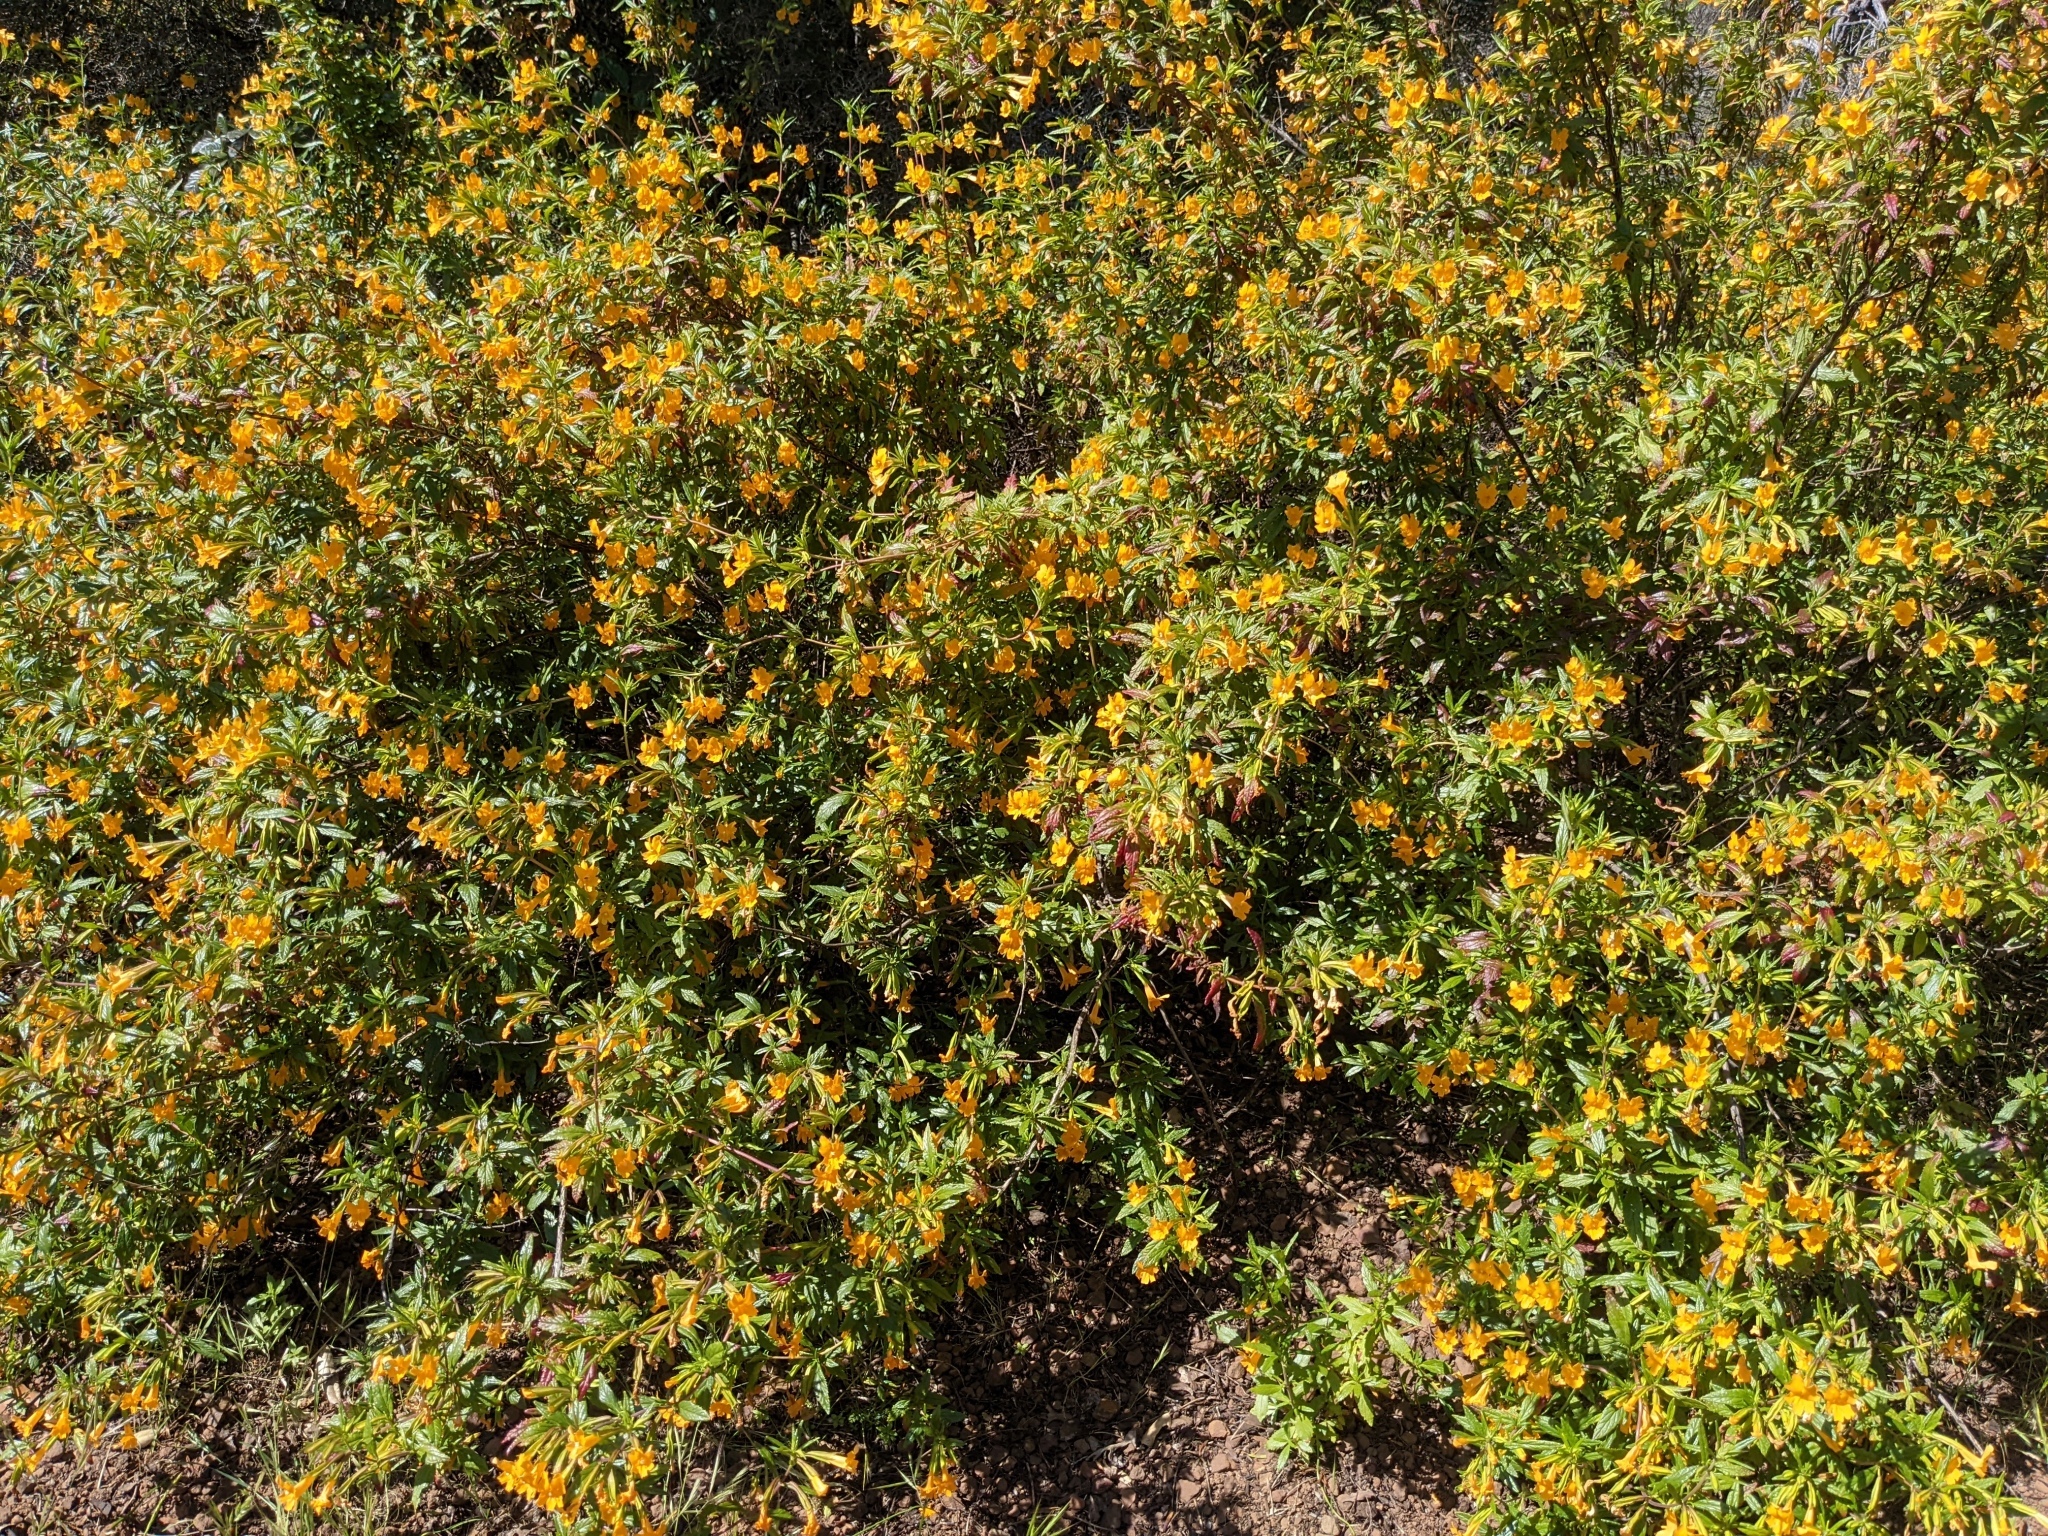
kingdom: Plantae
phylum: Tracheophyta
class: Magnoliopsida
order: Lamiales
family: Phrymaceae
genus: Diplacus
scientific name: Diplacus aurantiacus
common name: Bush monkey-flower
